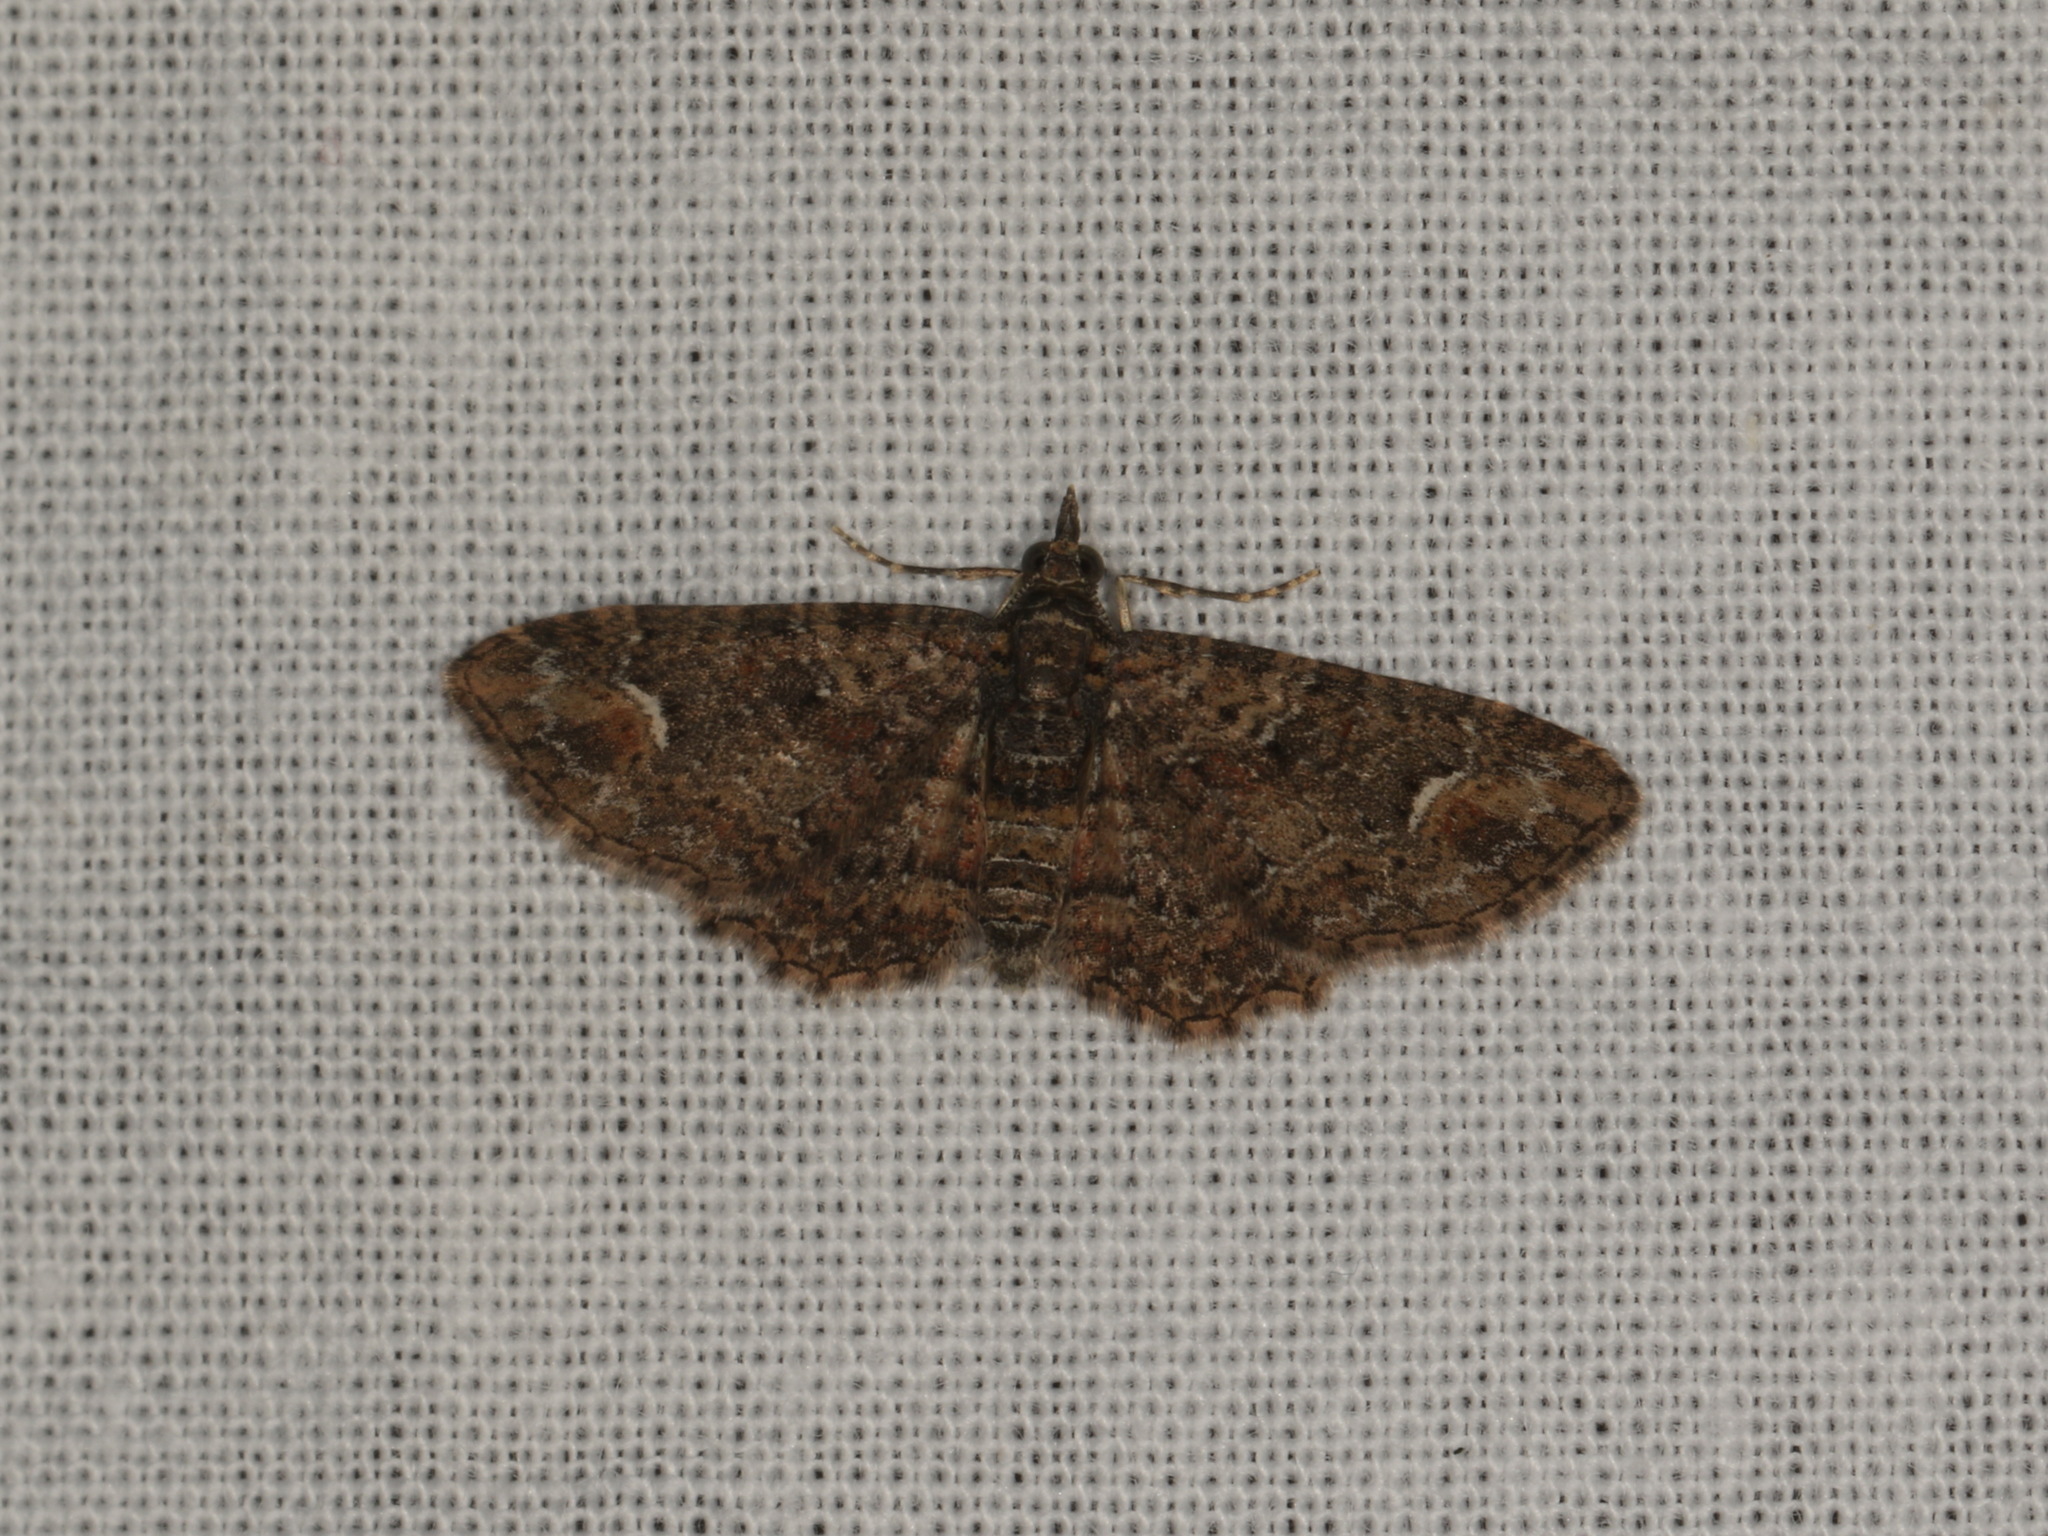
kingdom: Animalia
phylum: Arthropoda
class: Insecta
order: Lepidoptera
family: Geometridae
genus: Pasiphilodes
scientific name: Pasiphilodes testulata
